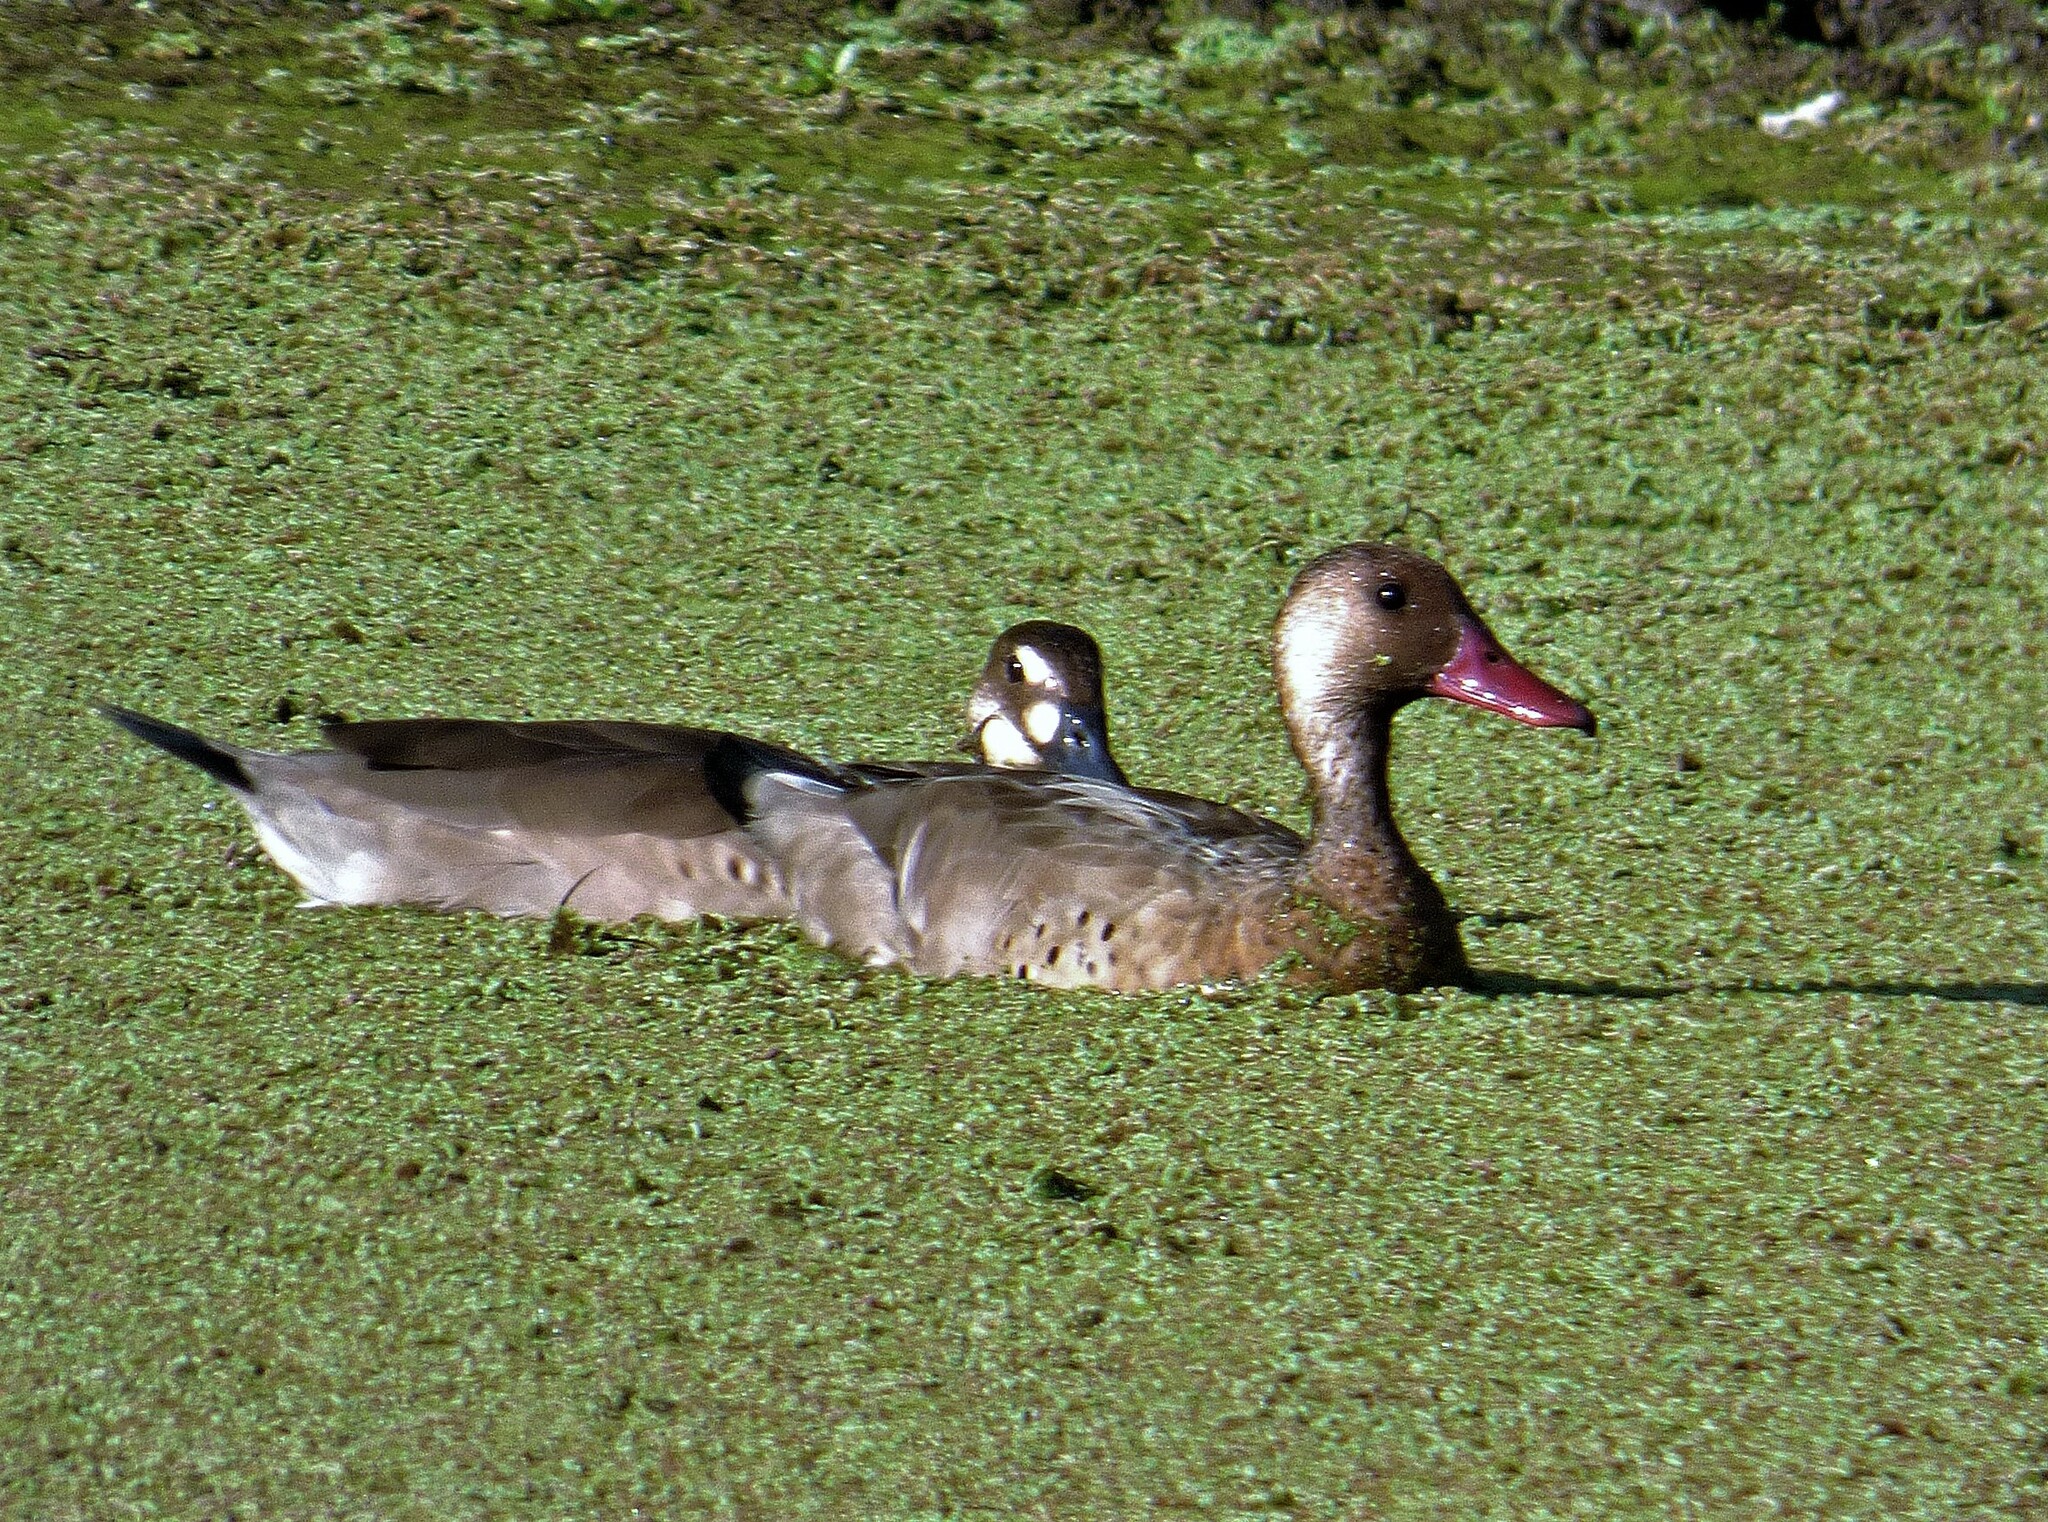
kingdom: Animalia
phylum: Chordata
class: Aves
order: Anseriformes
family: Anatidae
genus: Amazonetta
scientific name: Amazonetta brasiliensis
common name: Brazilian teal
